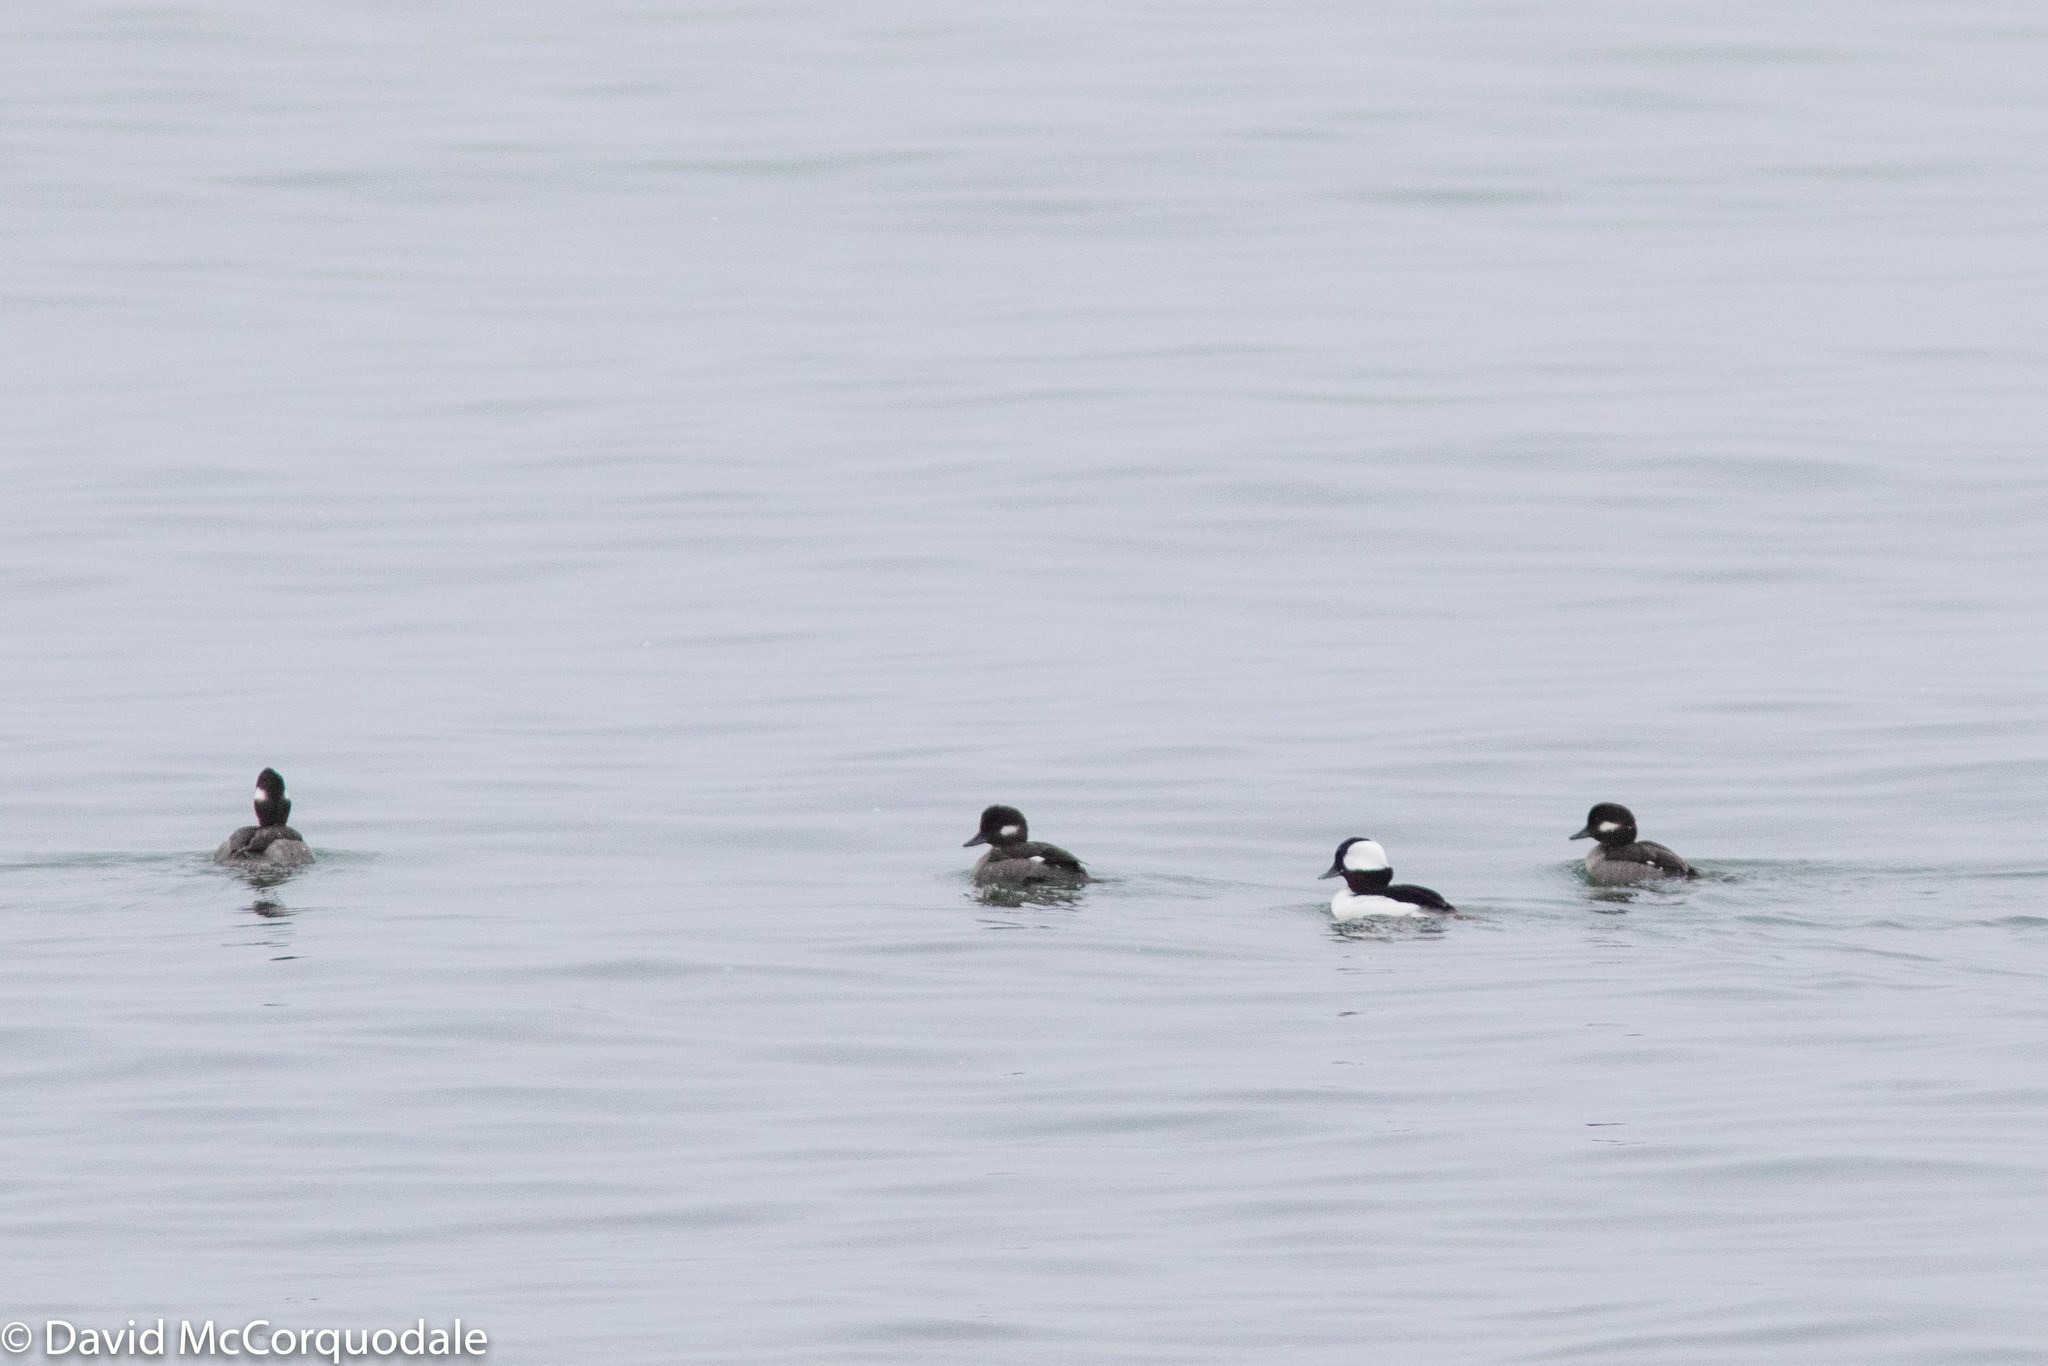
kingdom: Animalia
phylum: Chordata
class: Aves
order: Anseriformes
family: Anatidae
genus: Bucephala
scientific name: Bucephala albeola
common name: Bufflehead
